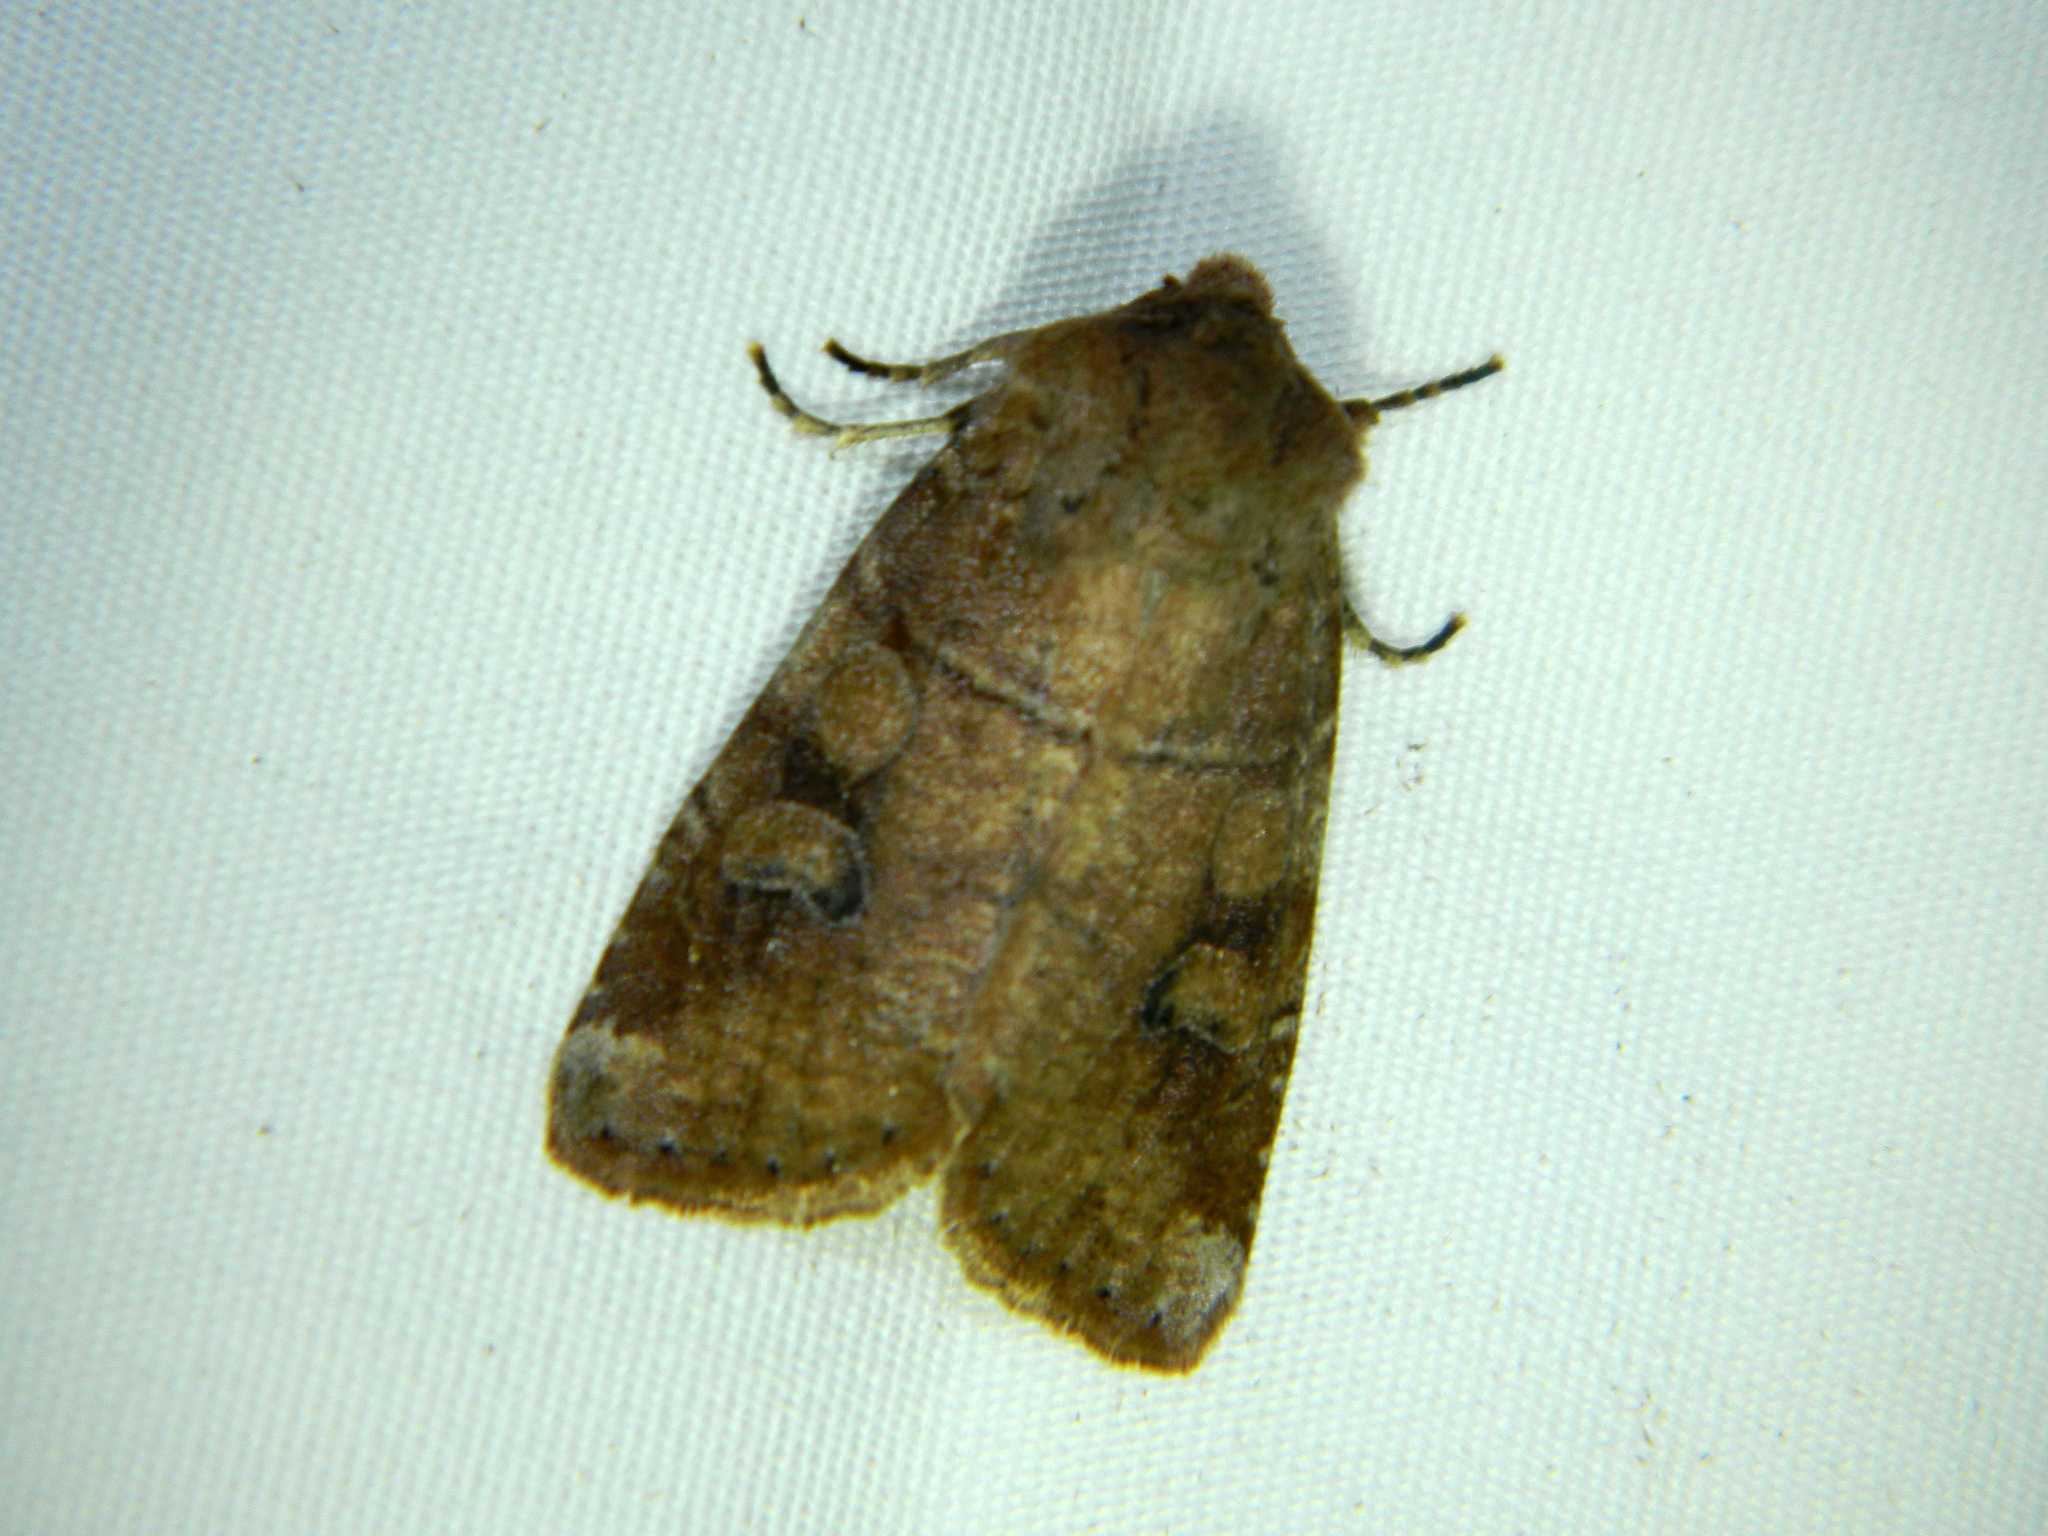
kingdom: Animalia
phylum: Arthropoda
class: Insecta
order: Lepidoptera
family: Noctuidae
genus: Crocigrapha
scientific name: Crocigrapha normani
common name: Norman's quaker
